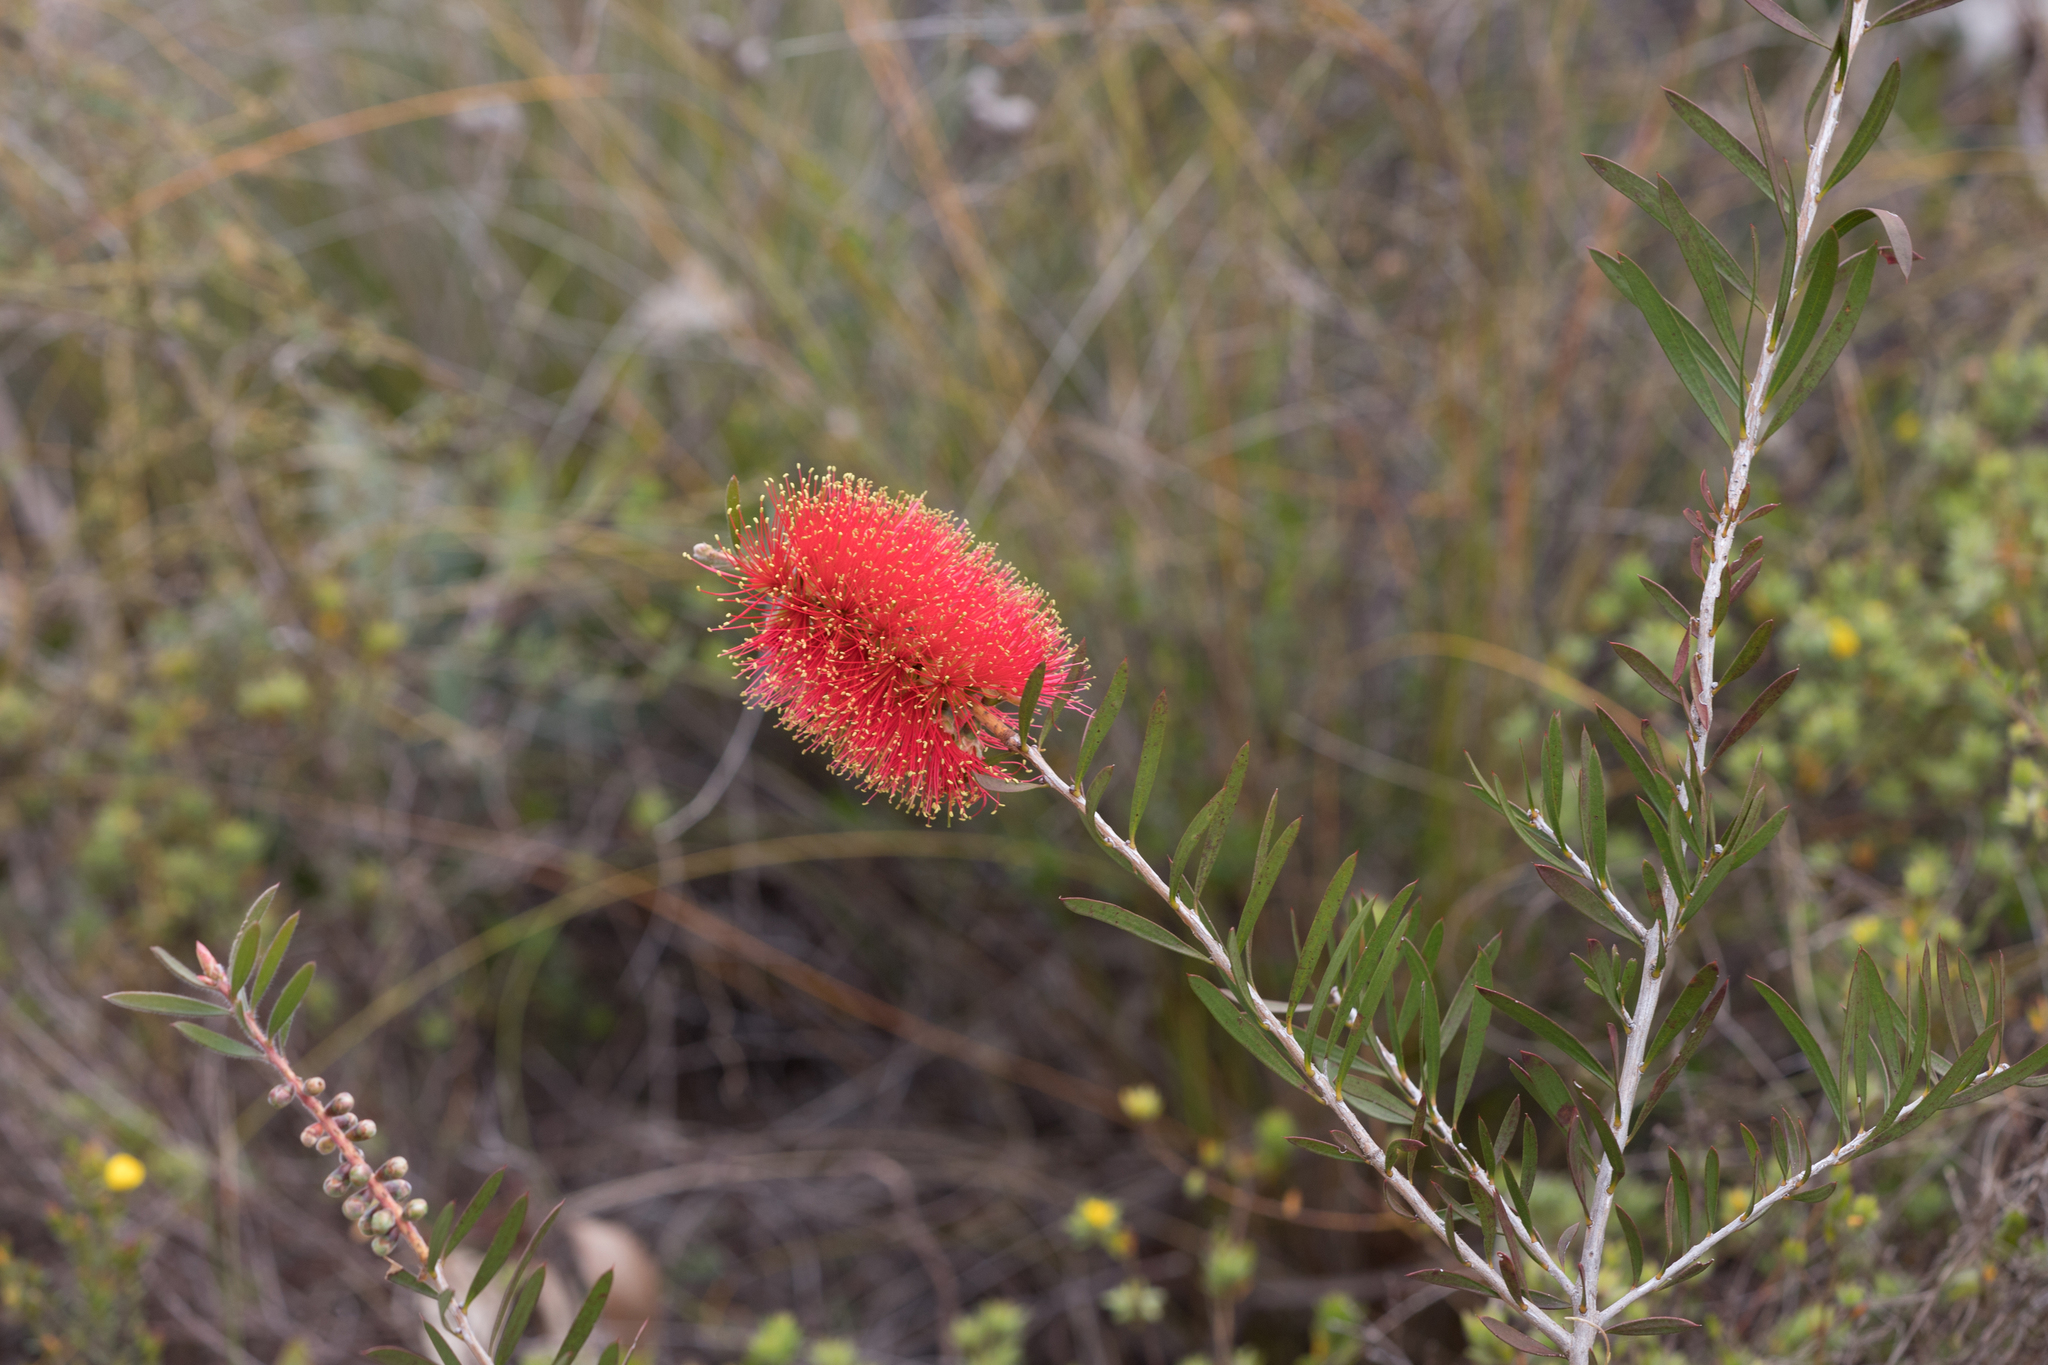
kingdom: Plantae
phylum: Tracheophyta
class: Magnoliopsida
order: Myrtales
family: Myrtaceae
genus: Callistemon
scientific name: Callistemon rugulosus
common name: Scarlet bottlebrush
